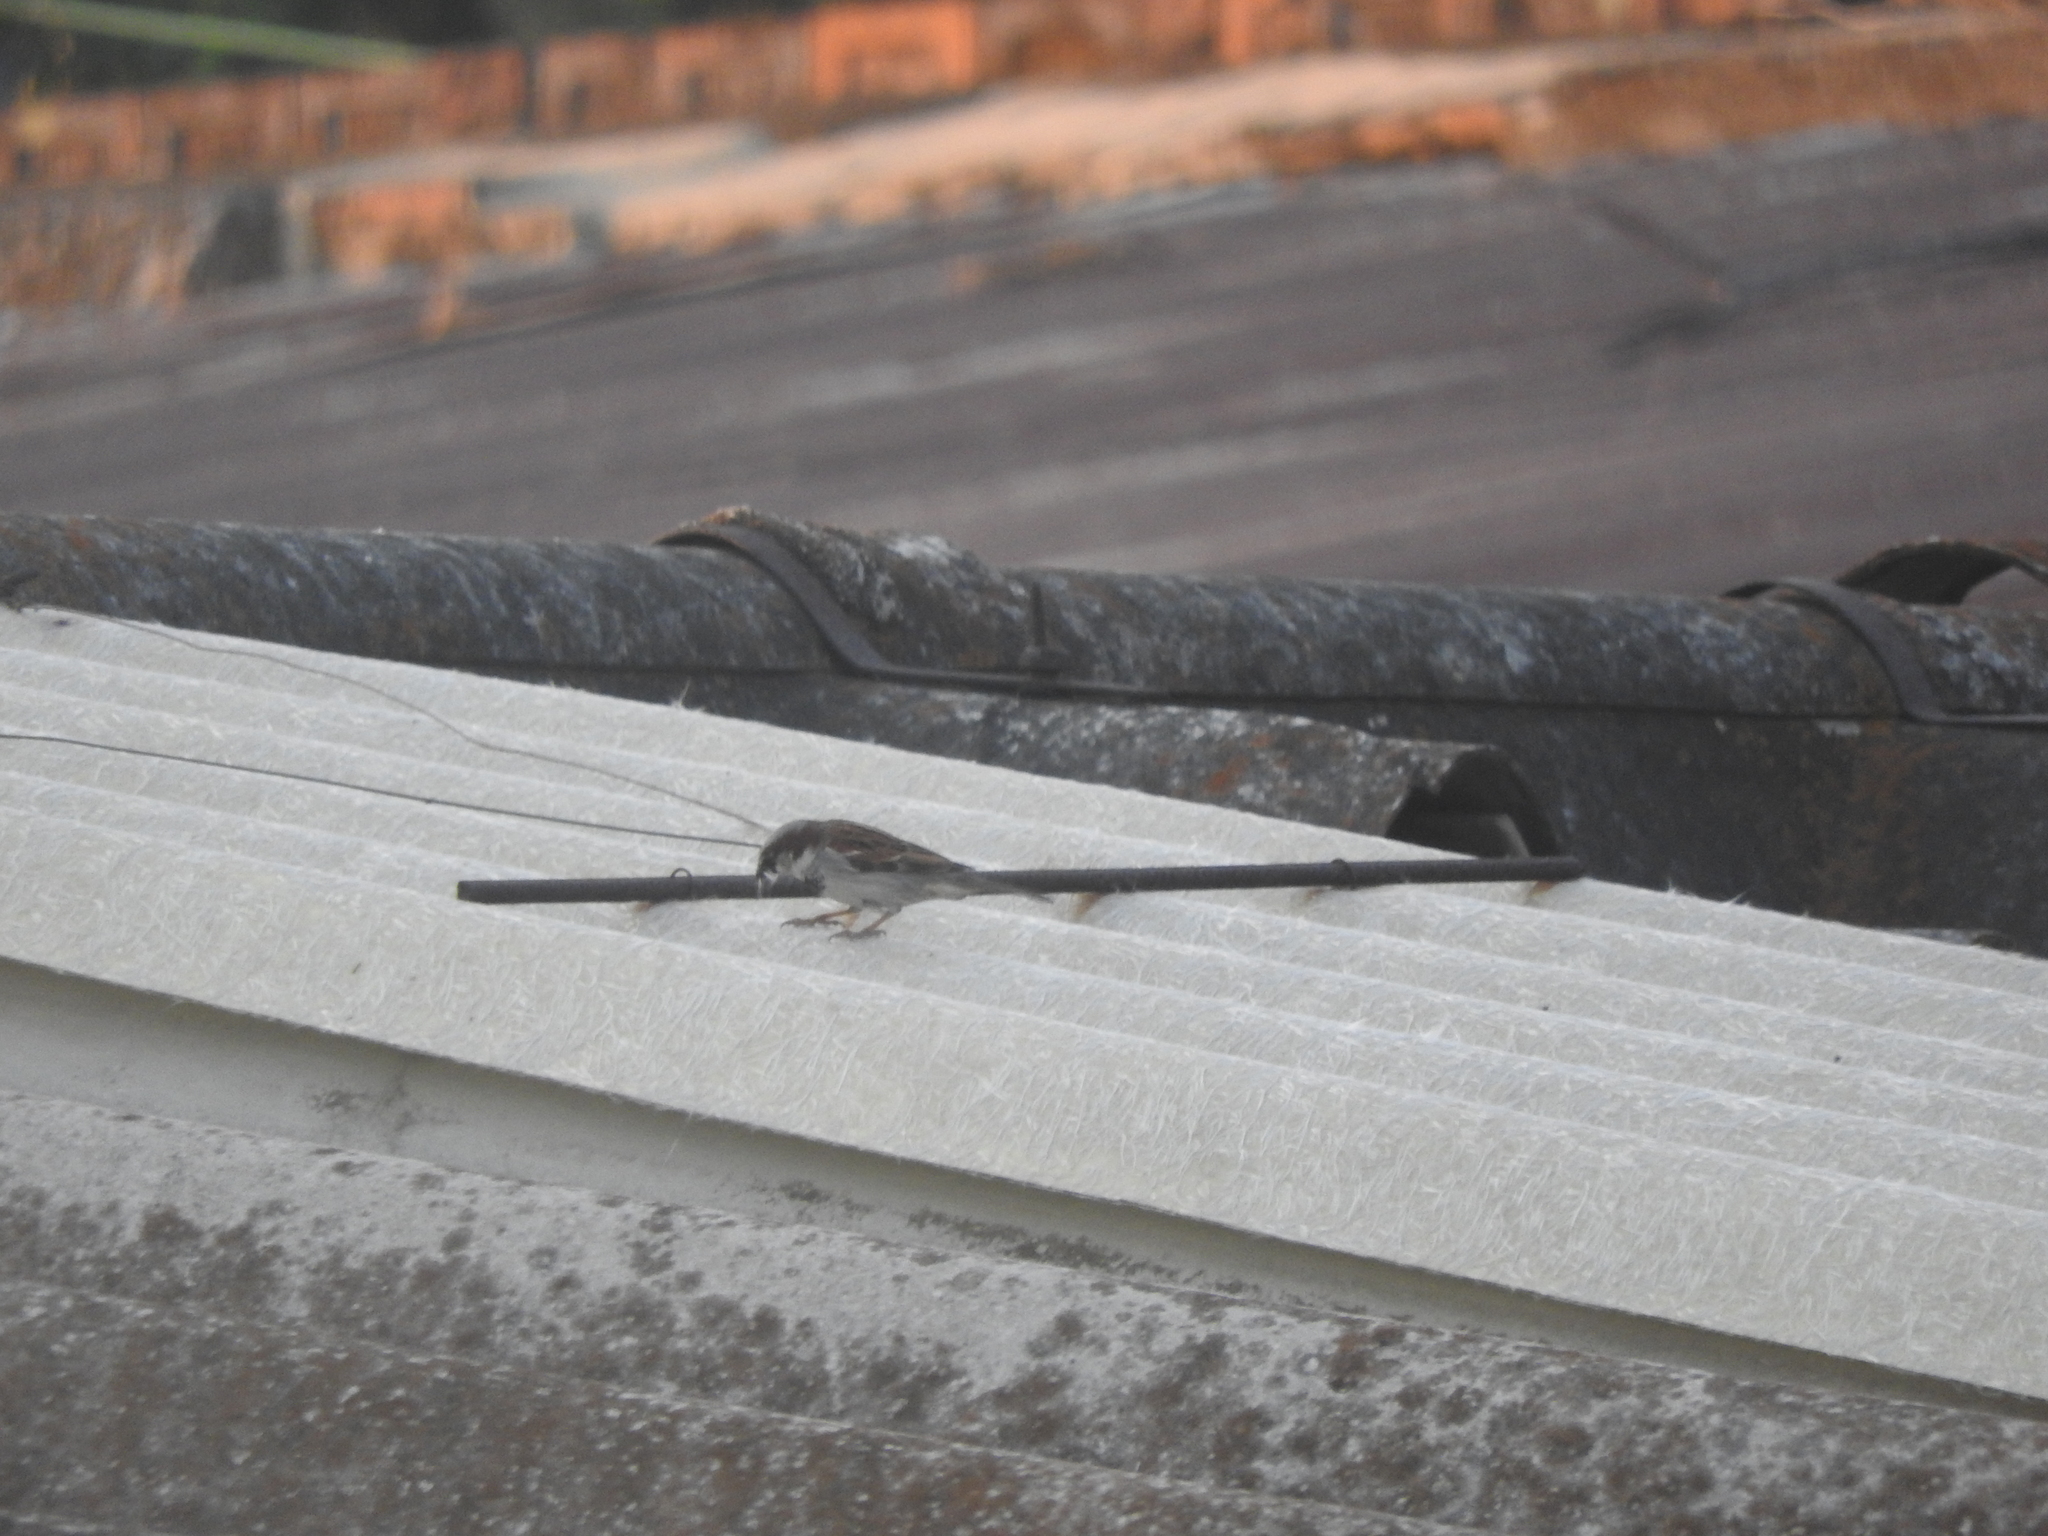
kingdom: Animalia
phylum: Chordata
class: Aves
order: Passeriformes
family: Passeridae
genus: Passer
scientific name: Passer domesticus
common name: House sparrow
